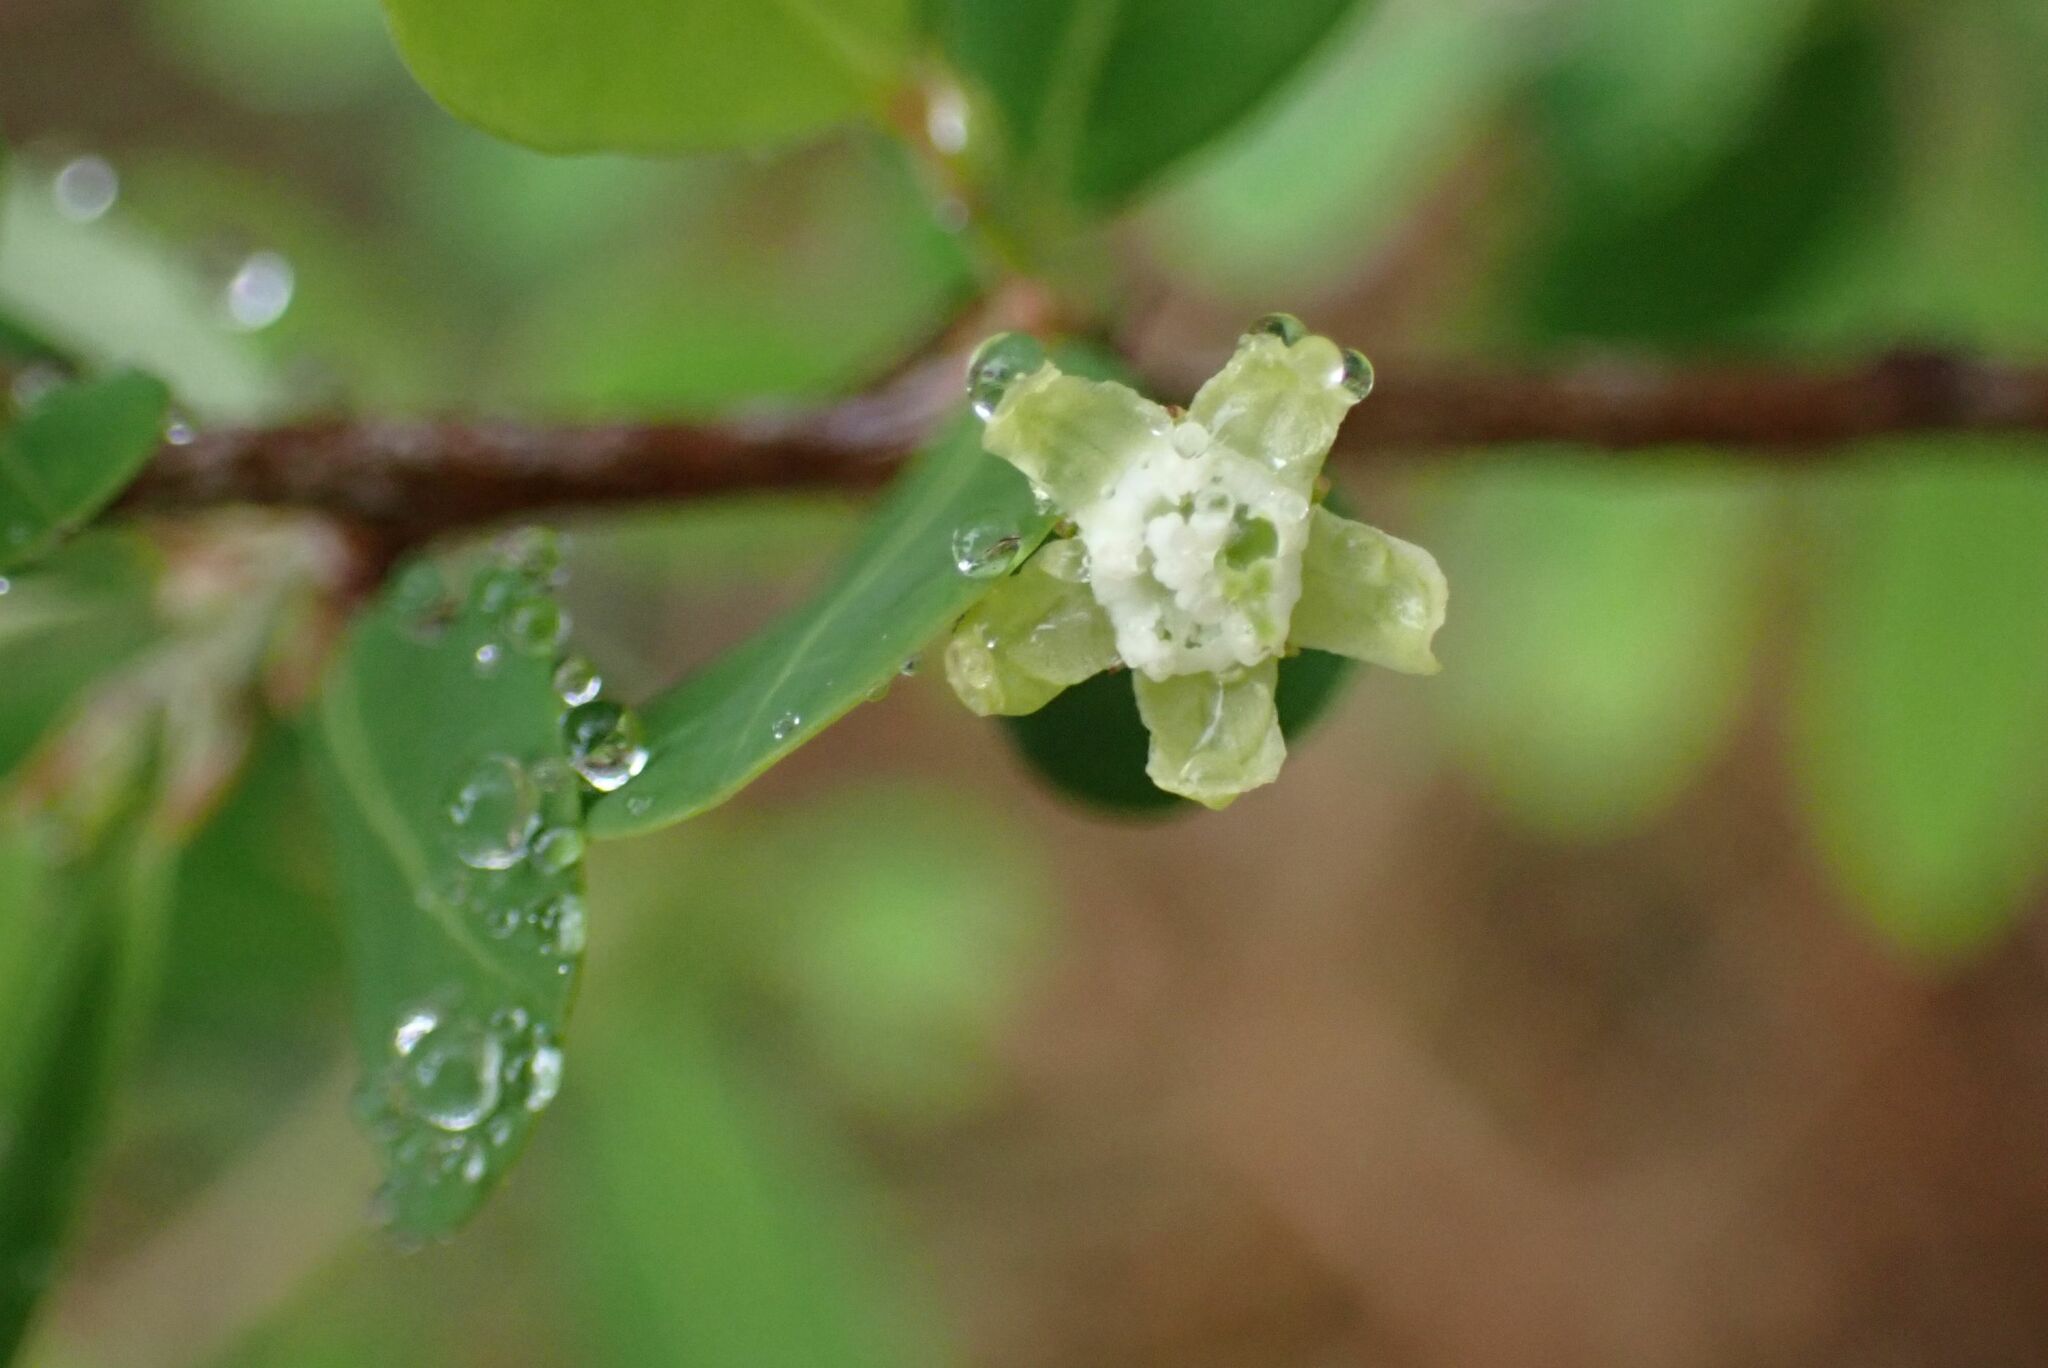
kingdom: Plantae
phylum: Tracheophyta
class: Magnoliopsida
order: Malpighiales
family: Erythroxylaceae
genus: Erythroxylum
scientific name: Erythroxylum delagoense
